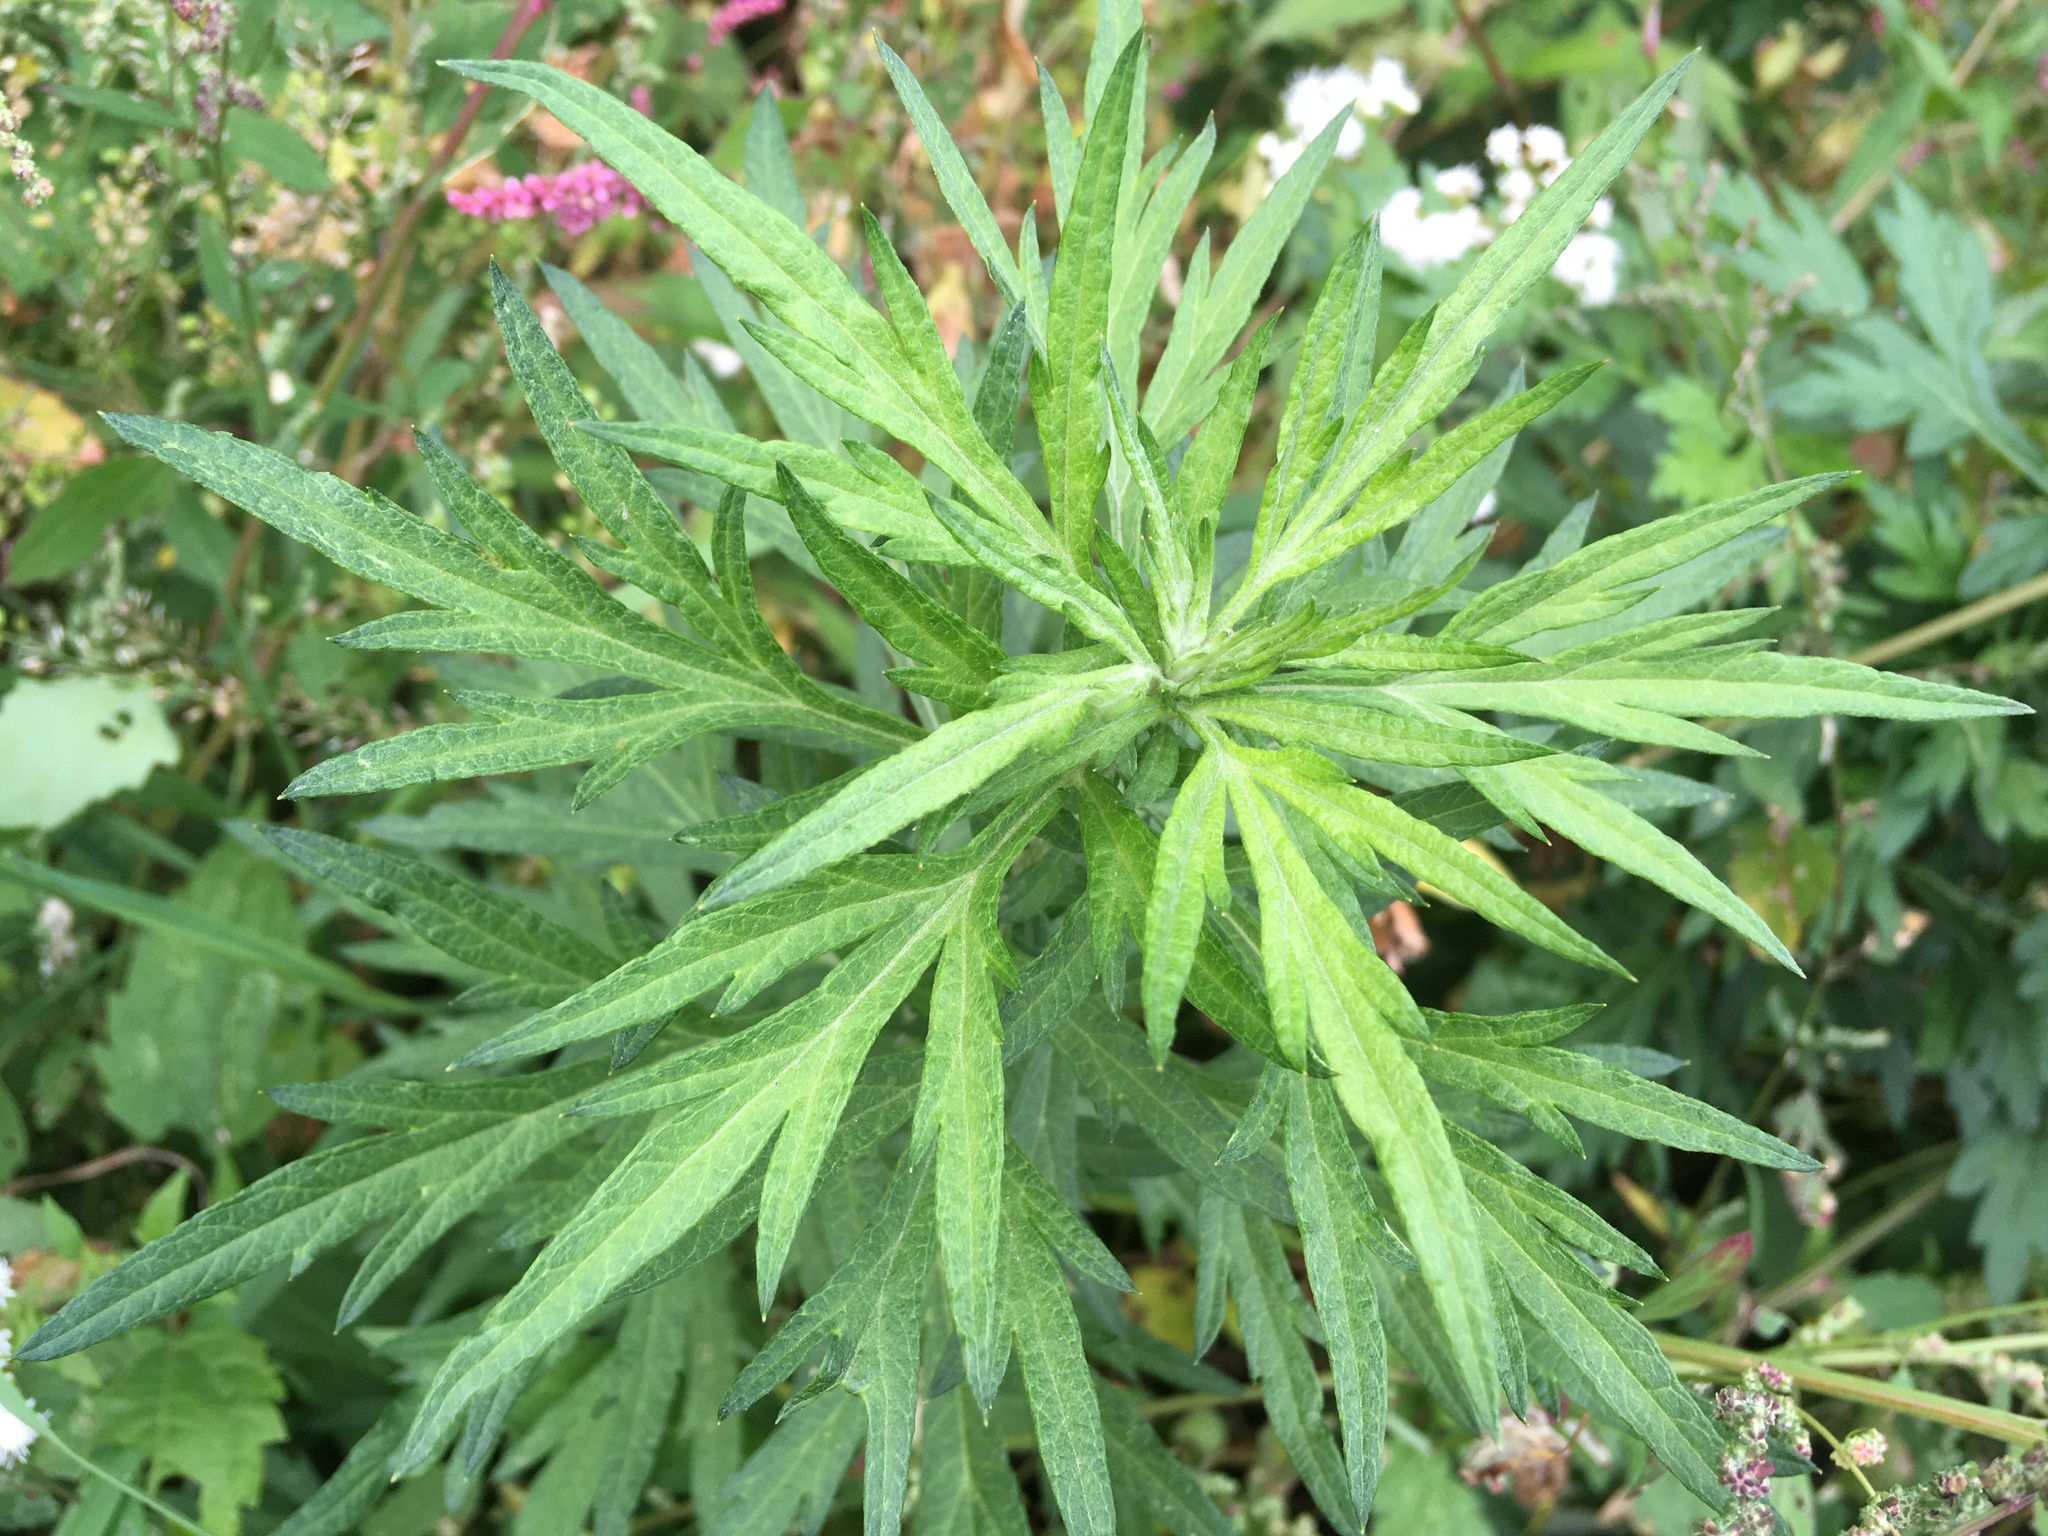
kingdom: Plantae
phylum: Tracheophyta
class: Magnoliopsida
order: Asterales
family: Asteraceae
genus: Artemisia
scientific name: Artemisia vulgaris
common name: Mugwort
